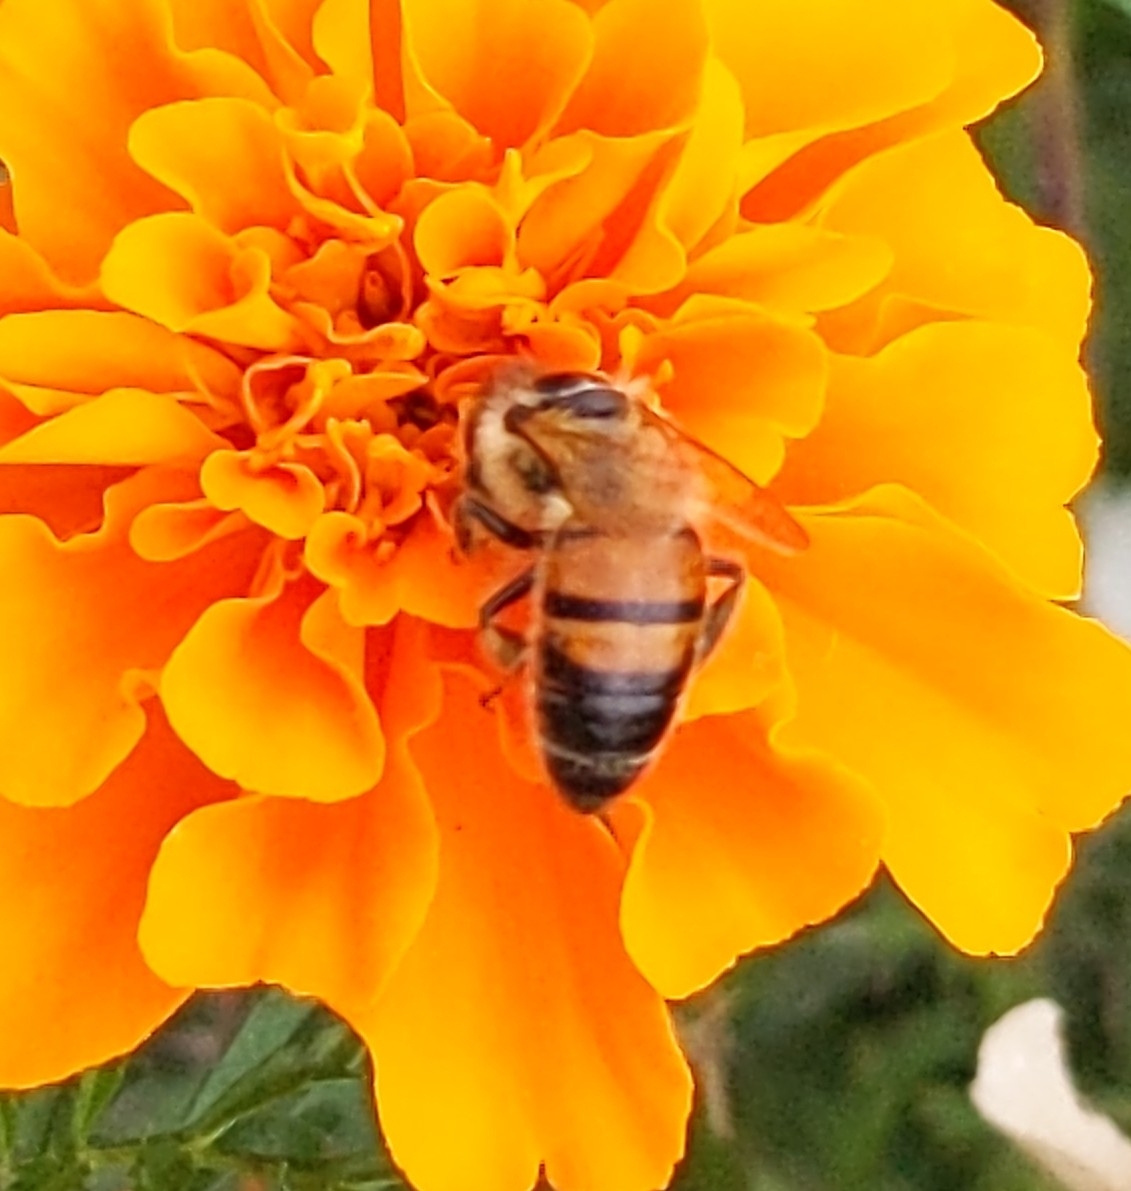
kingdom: Animalia
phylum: Arthropoda
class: Insecta
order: Hymenoptera
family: Apidae
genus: Apis
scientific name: Apis mellifera
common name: Honey bee
